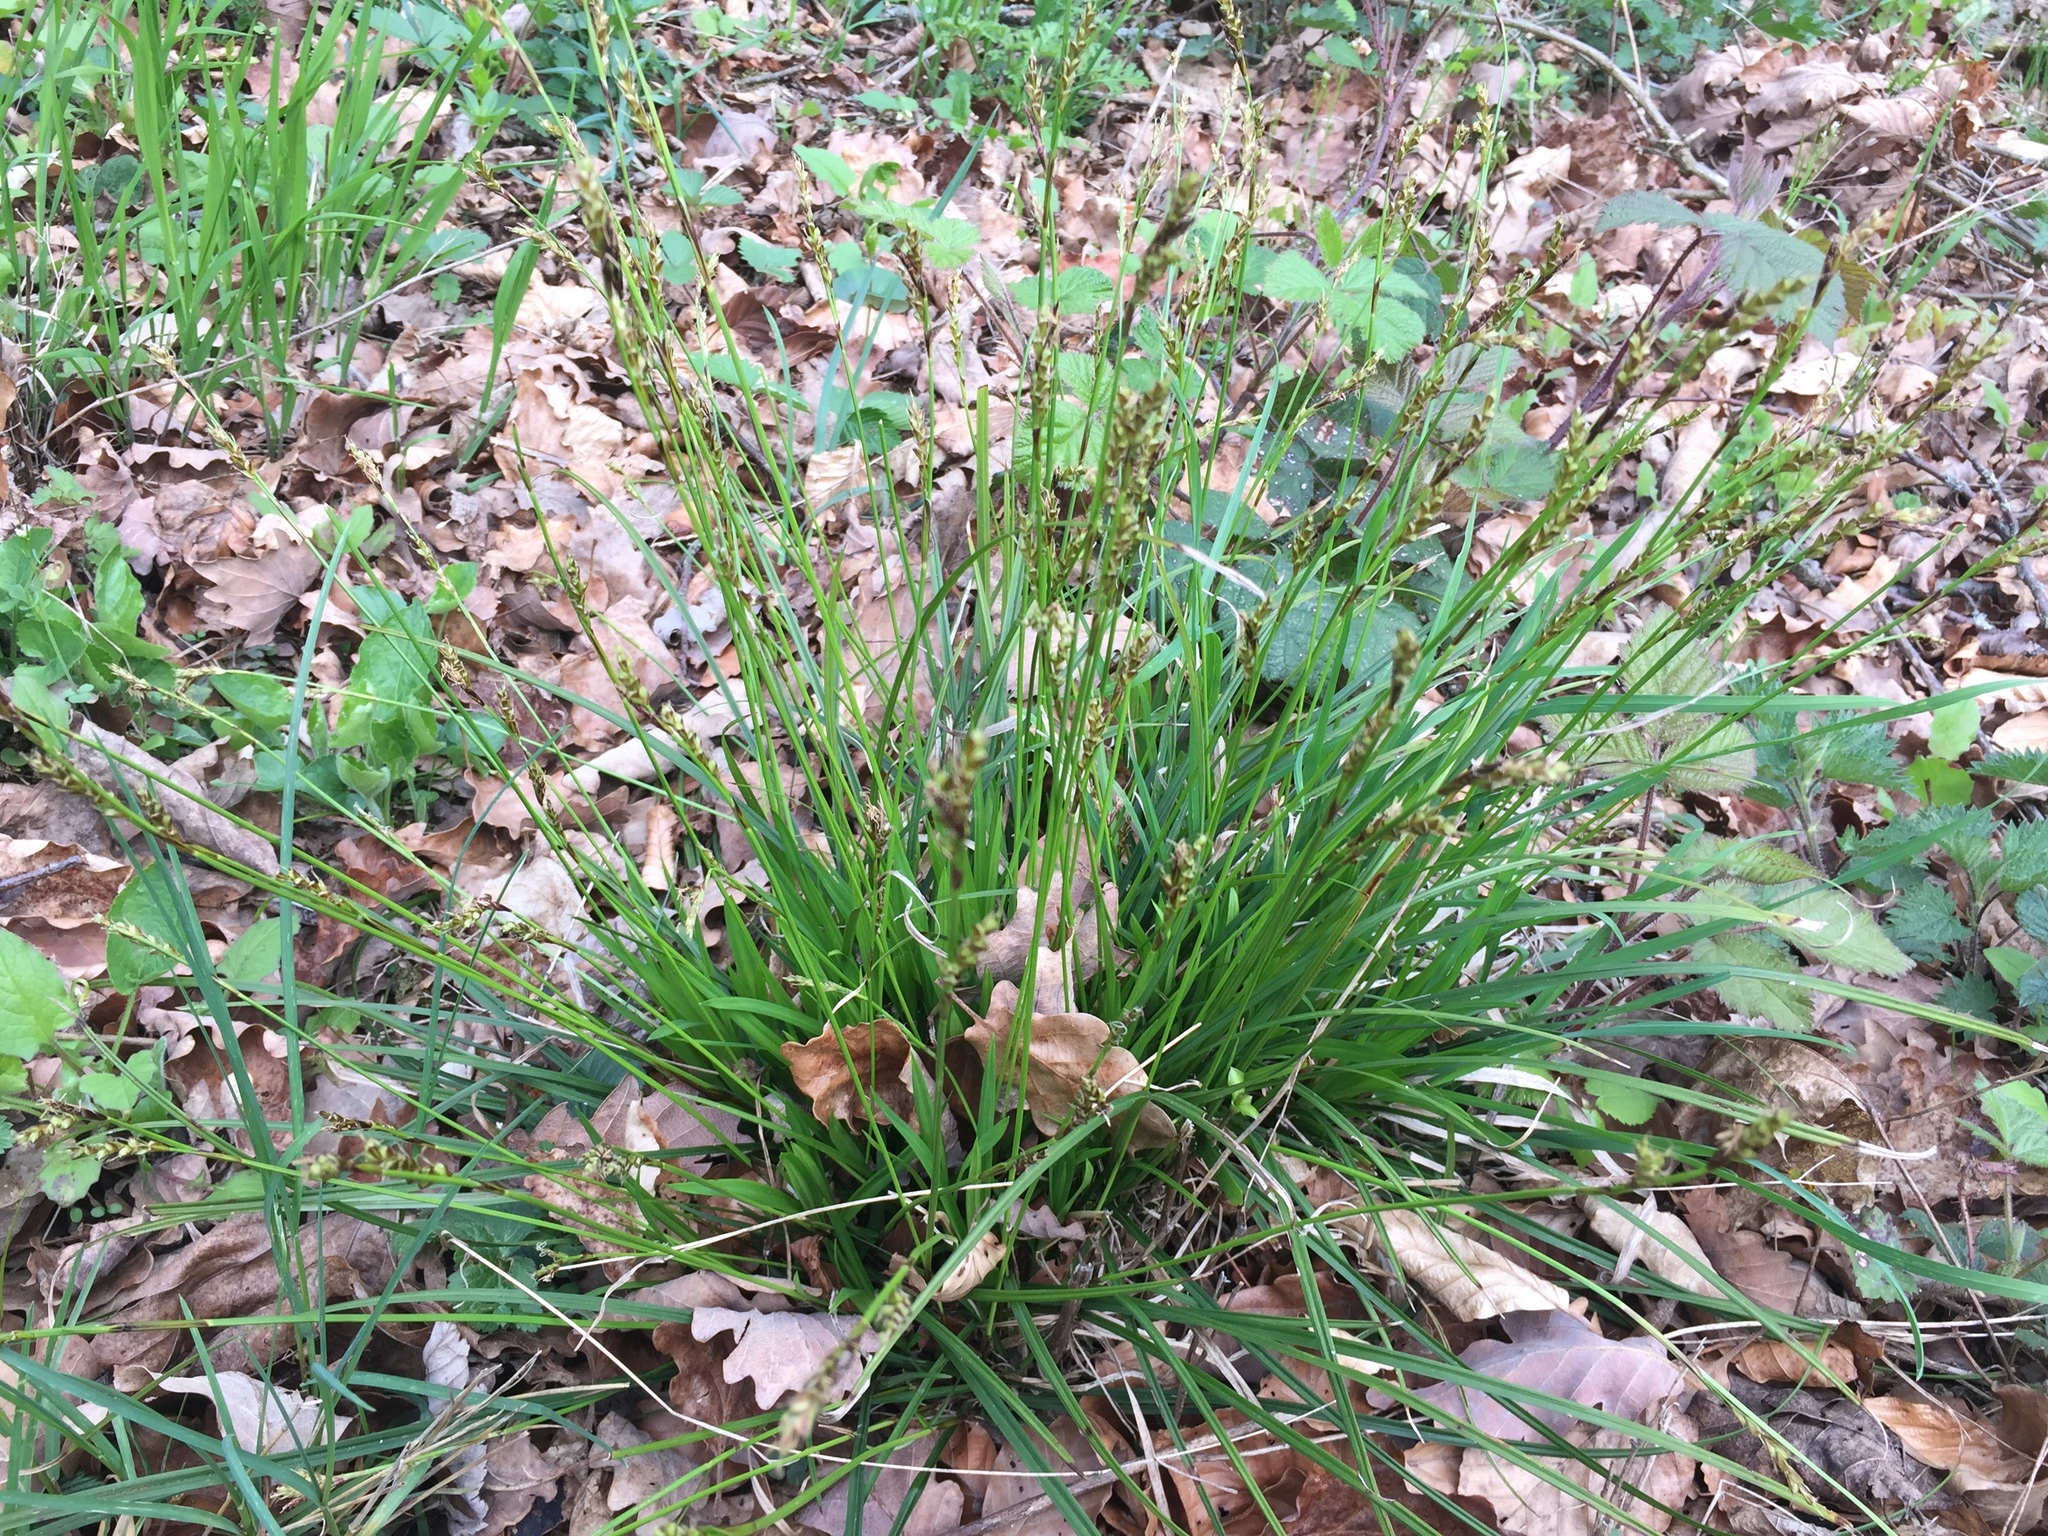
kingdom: Plantae
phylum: Tracheophyta
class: Liliopsida
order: Poales
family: Cyperaceae
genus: Carex
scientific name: Carex digitata
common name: Fingered sedge
